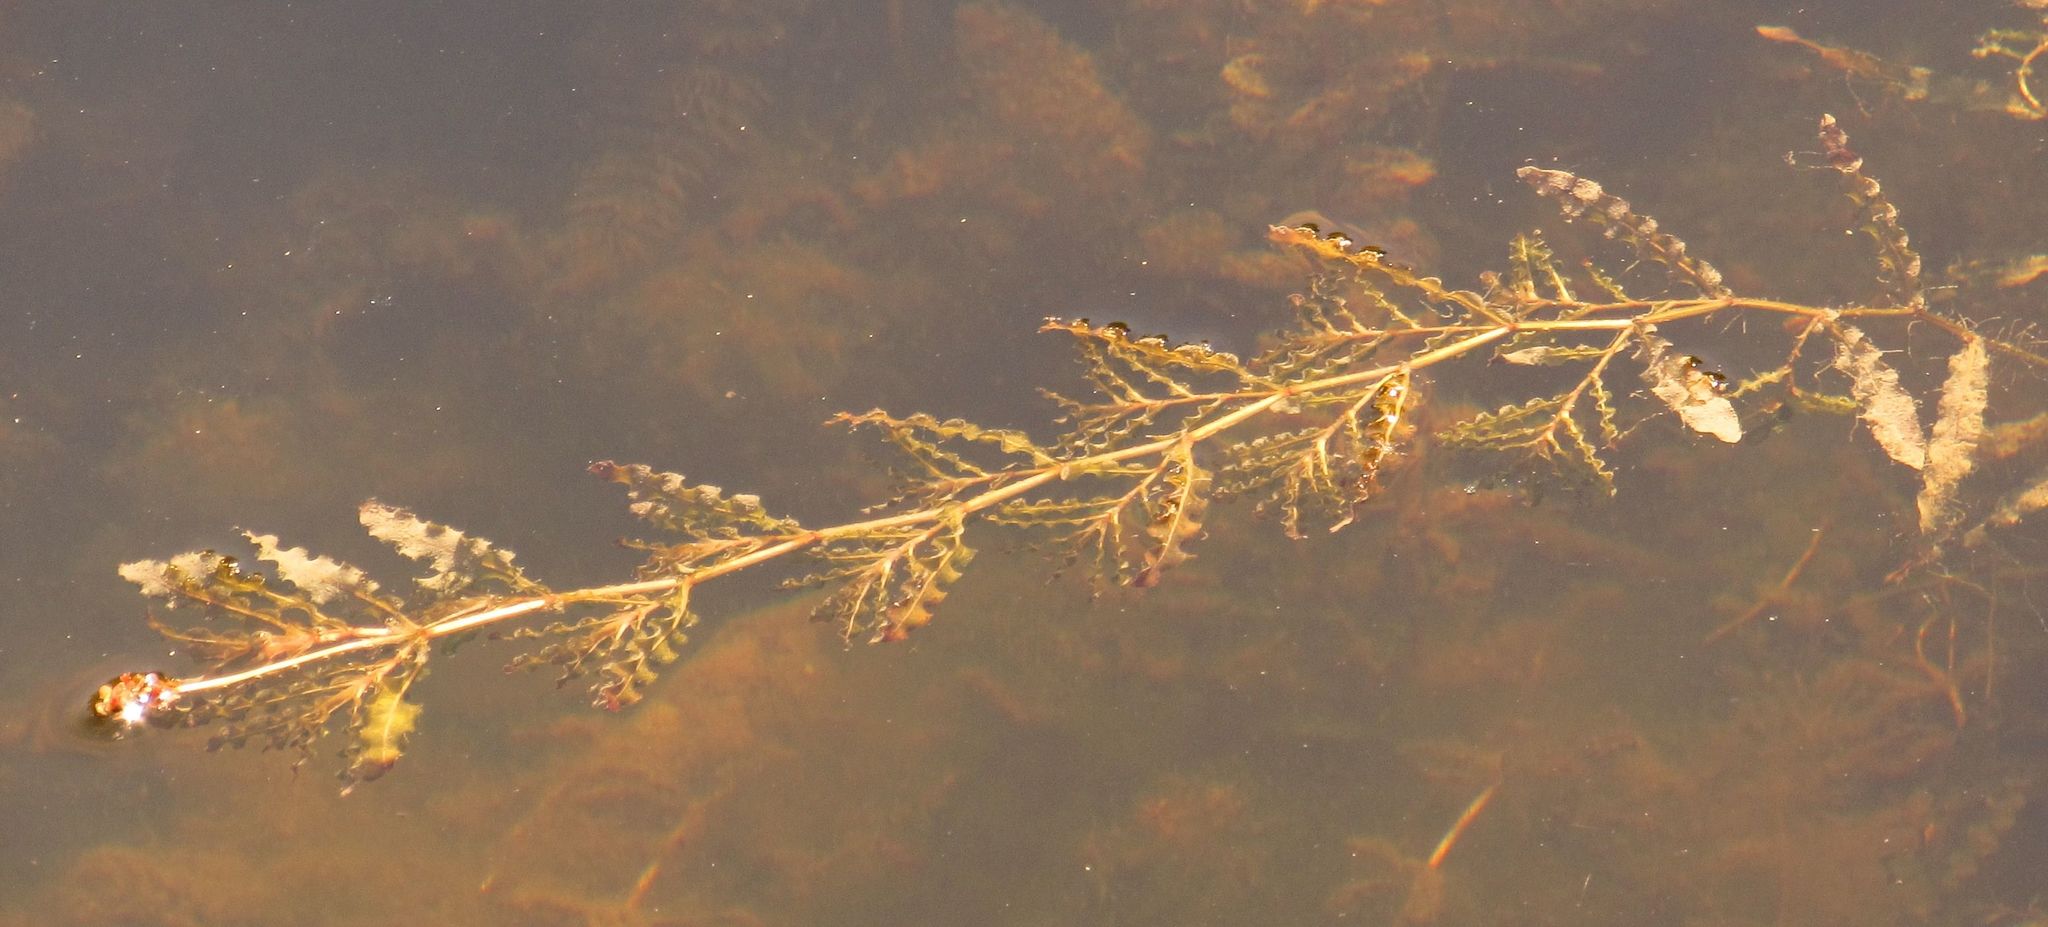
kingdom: Plantae
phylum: Tracheophyta
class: Liliopsida
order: Alismatales
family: Potamogetonaceae
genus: Potamogeton
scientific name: Potamogeton crispus
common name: Curled pondweed
